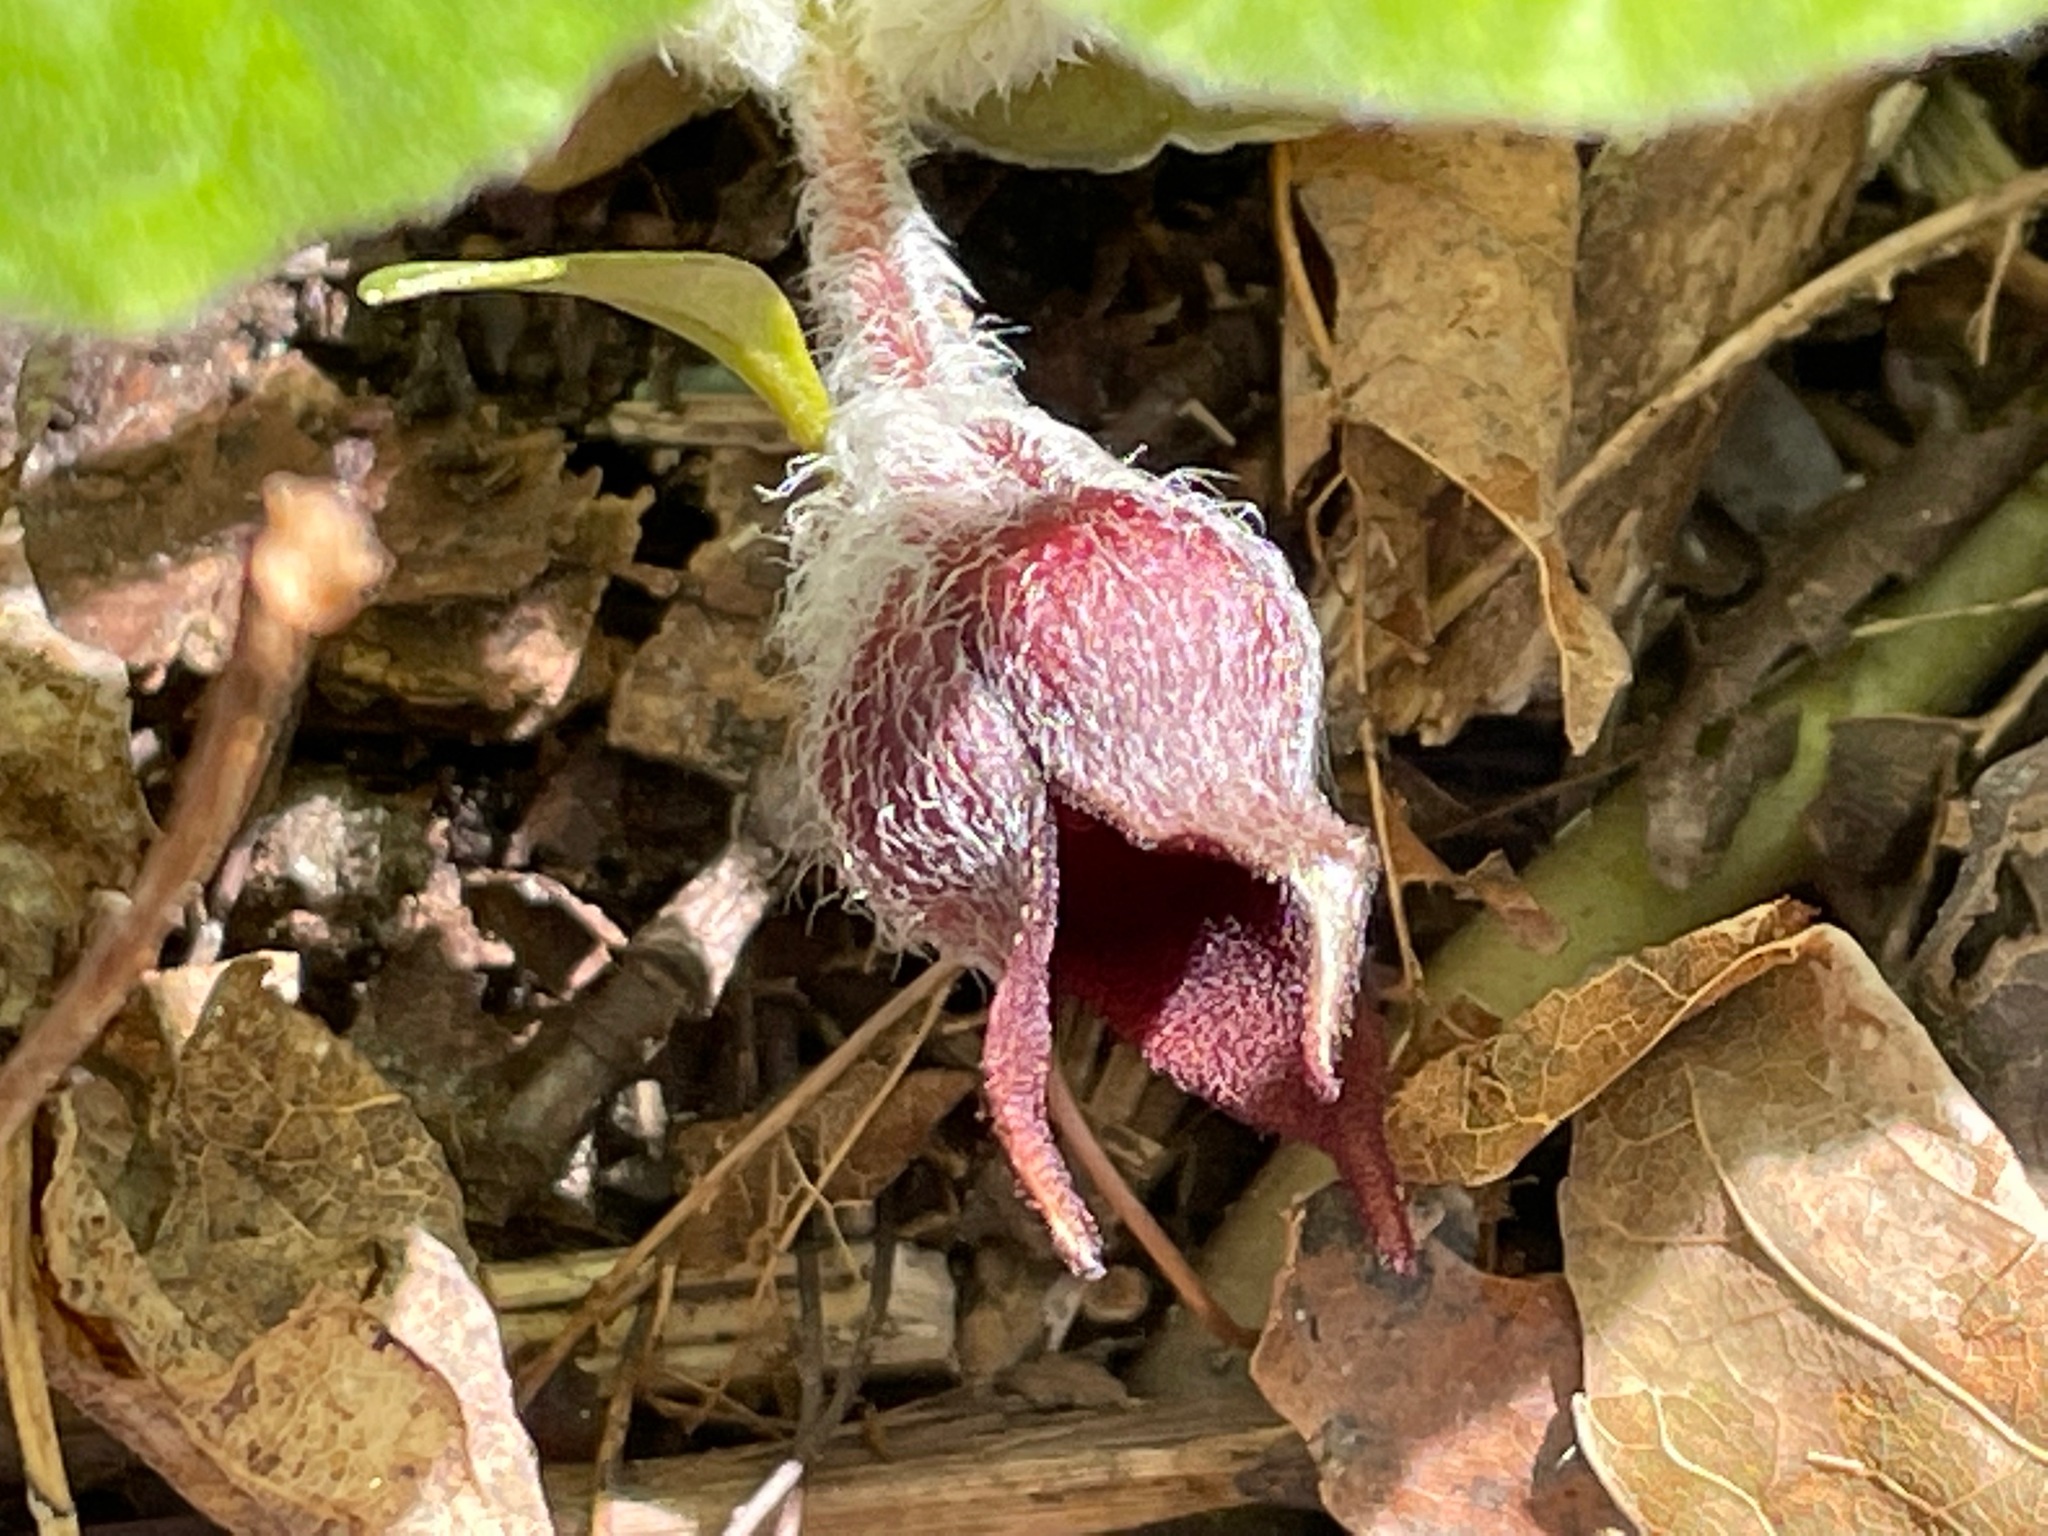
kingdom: Plantae
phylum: Tracheophyta
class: Magnoliopsida
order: Piperales
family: Aristolochiaceae
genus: Asarum
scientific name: Asarum canadense
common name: Wild ginger
